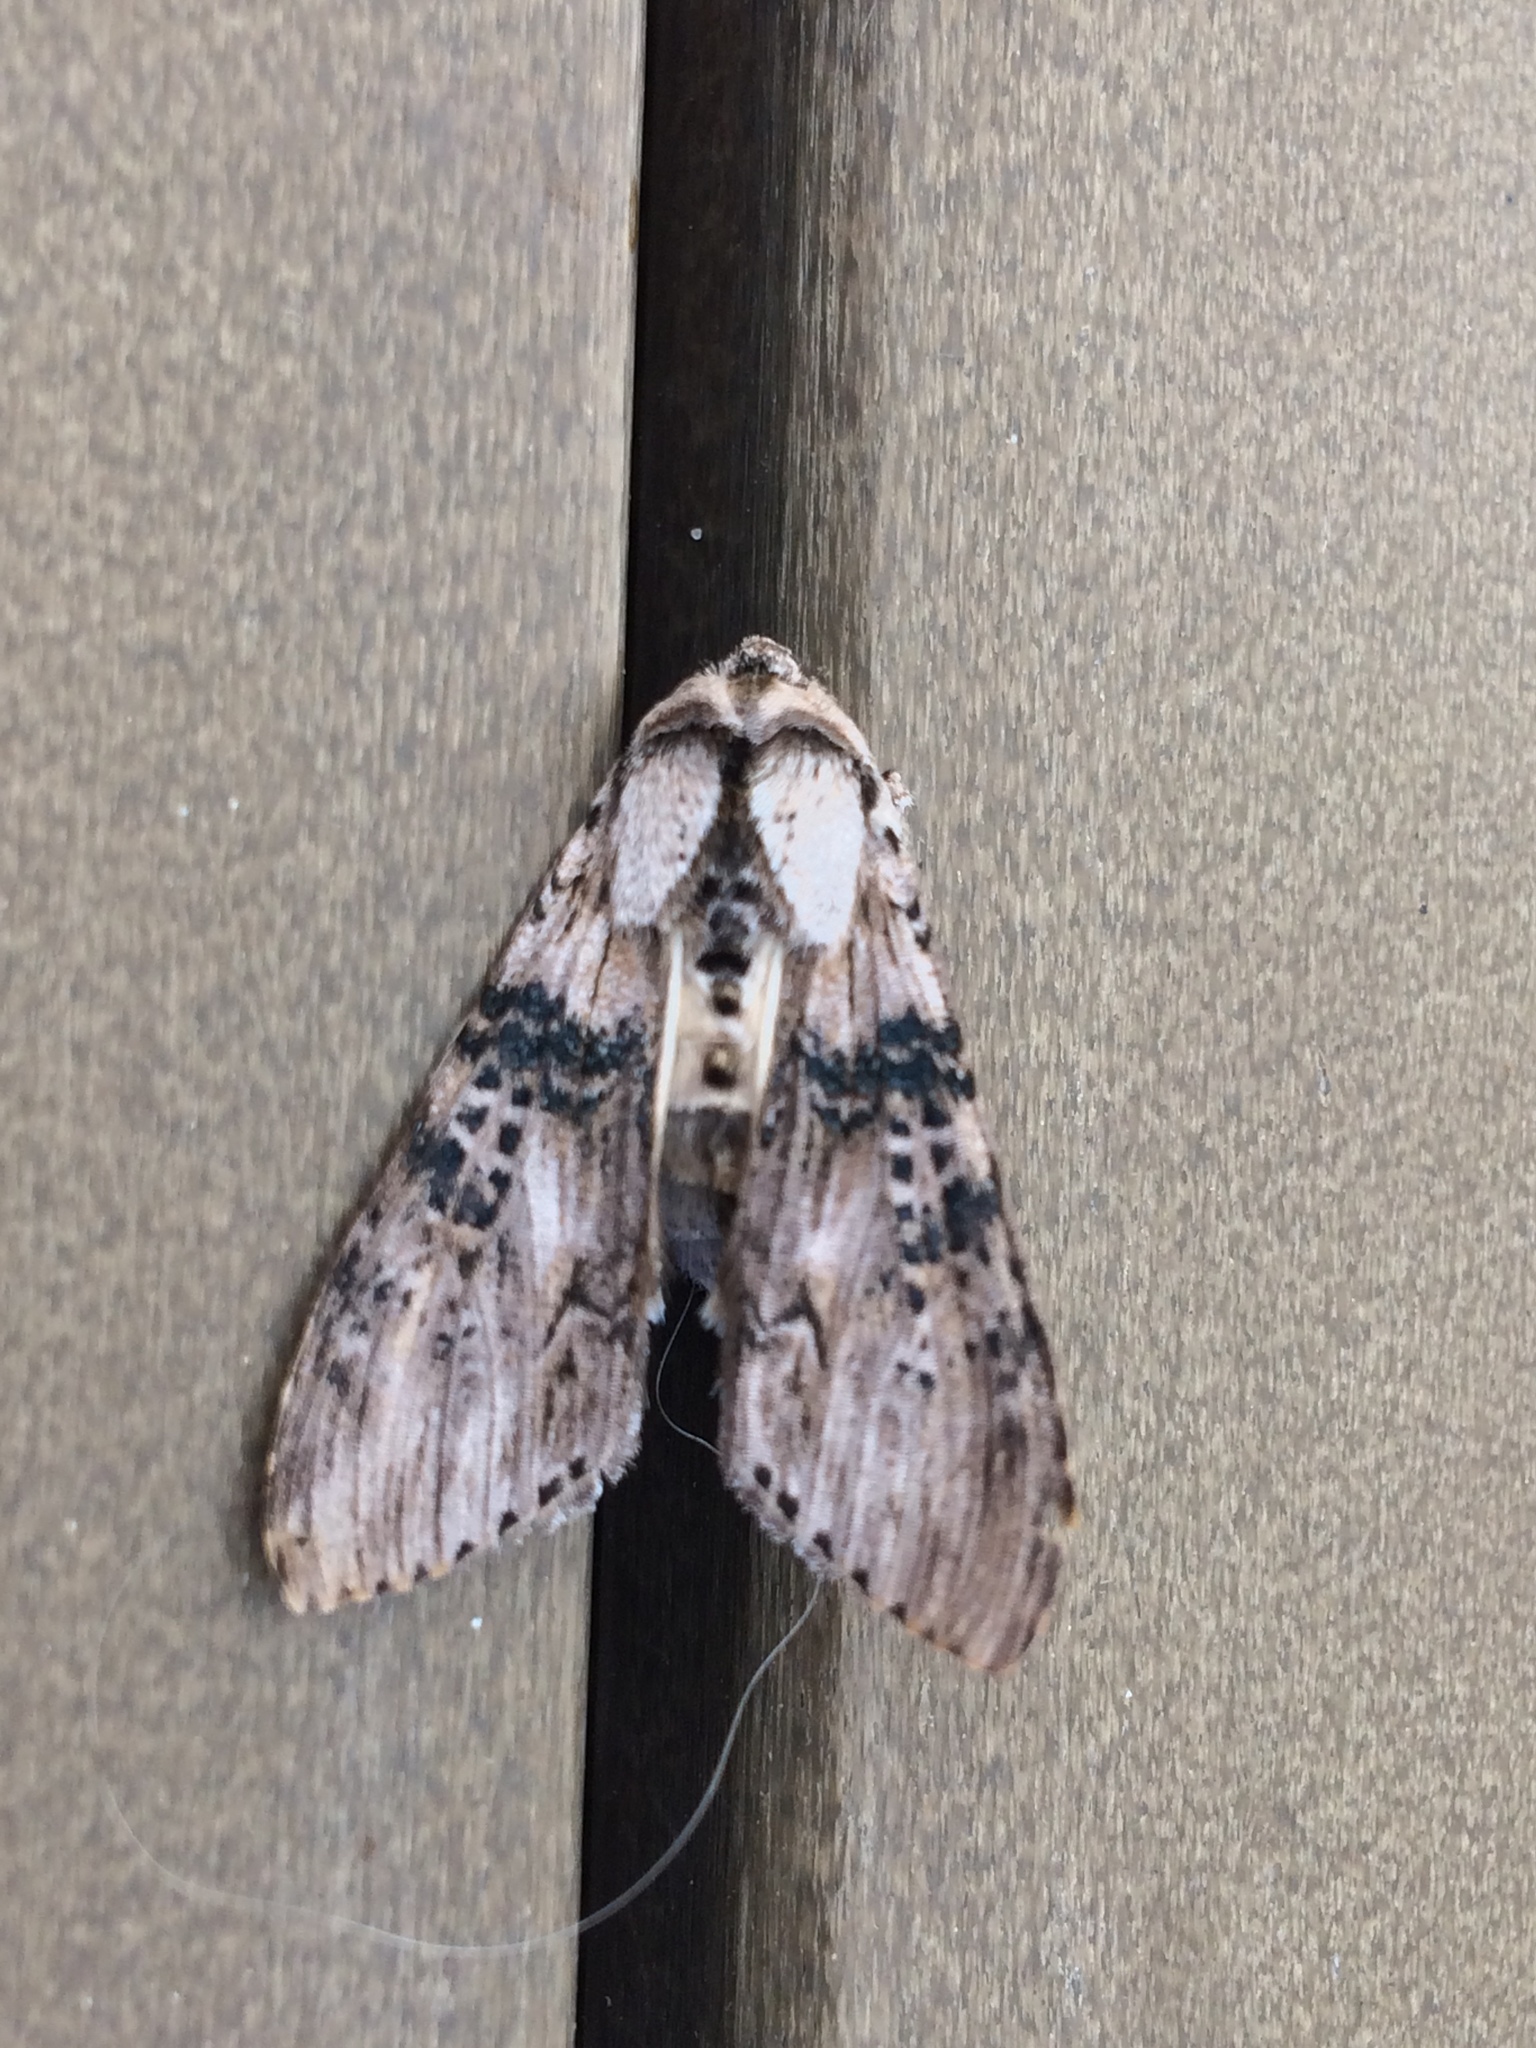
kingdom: Animalia
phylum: Arthropoda
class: Insecta
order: Lepidoptera
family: Noctuidae
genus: Cucullia
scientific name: Cucullia absinthii
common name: Wormwood
